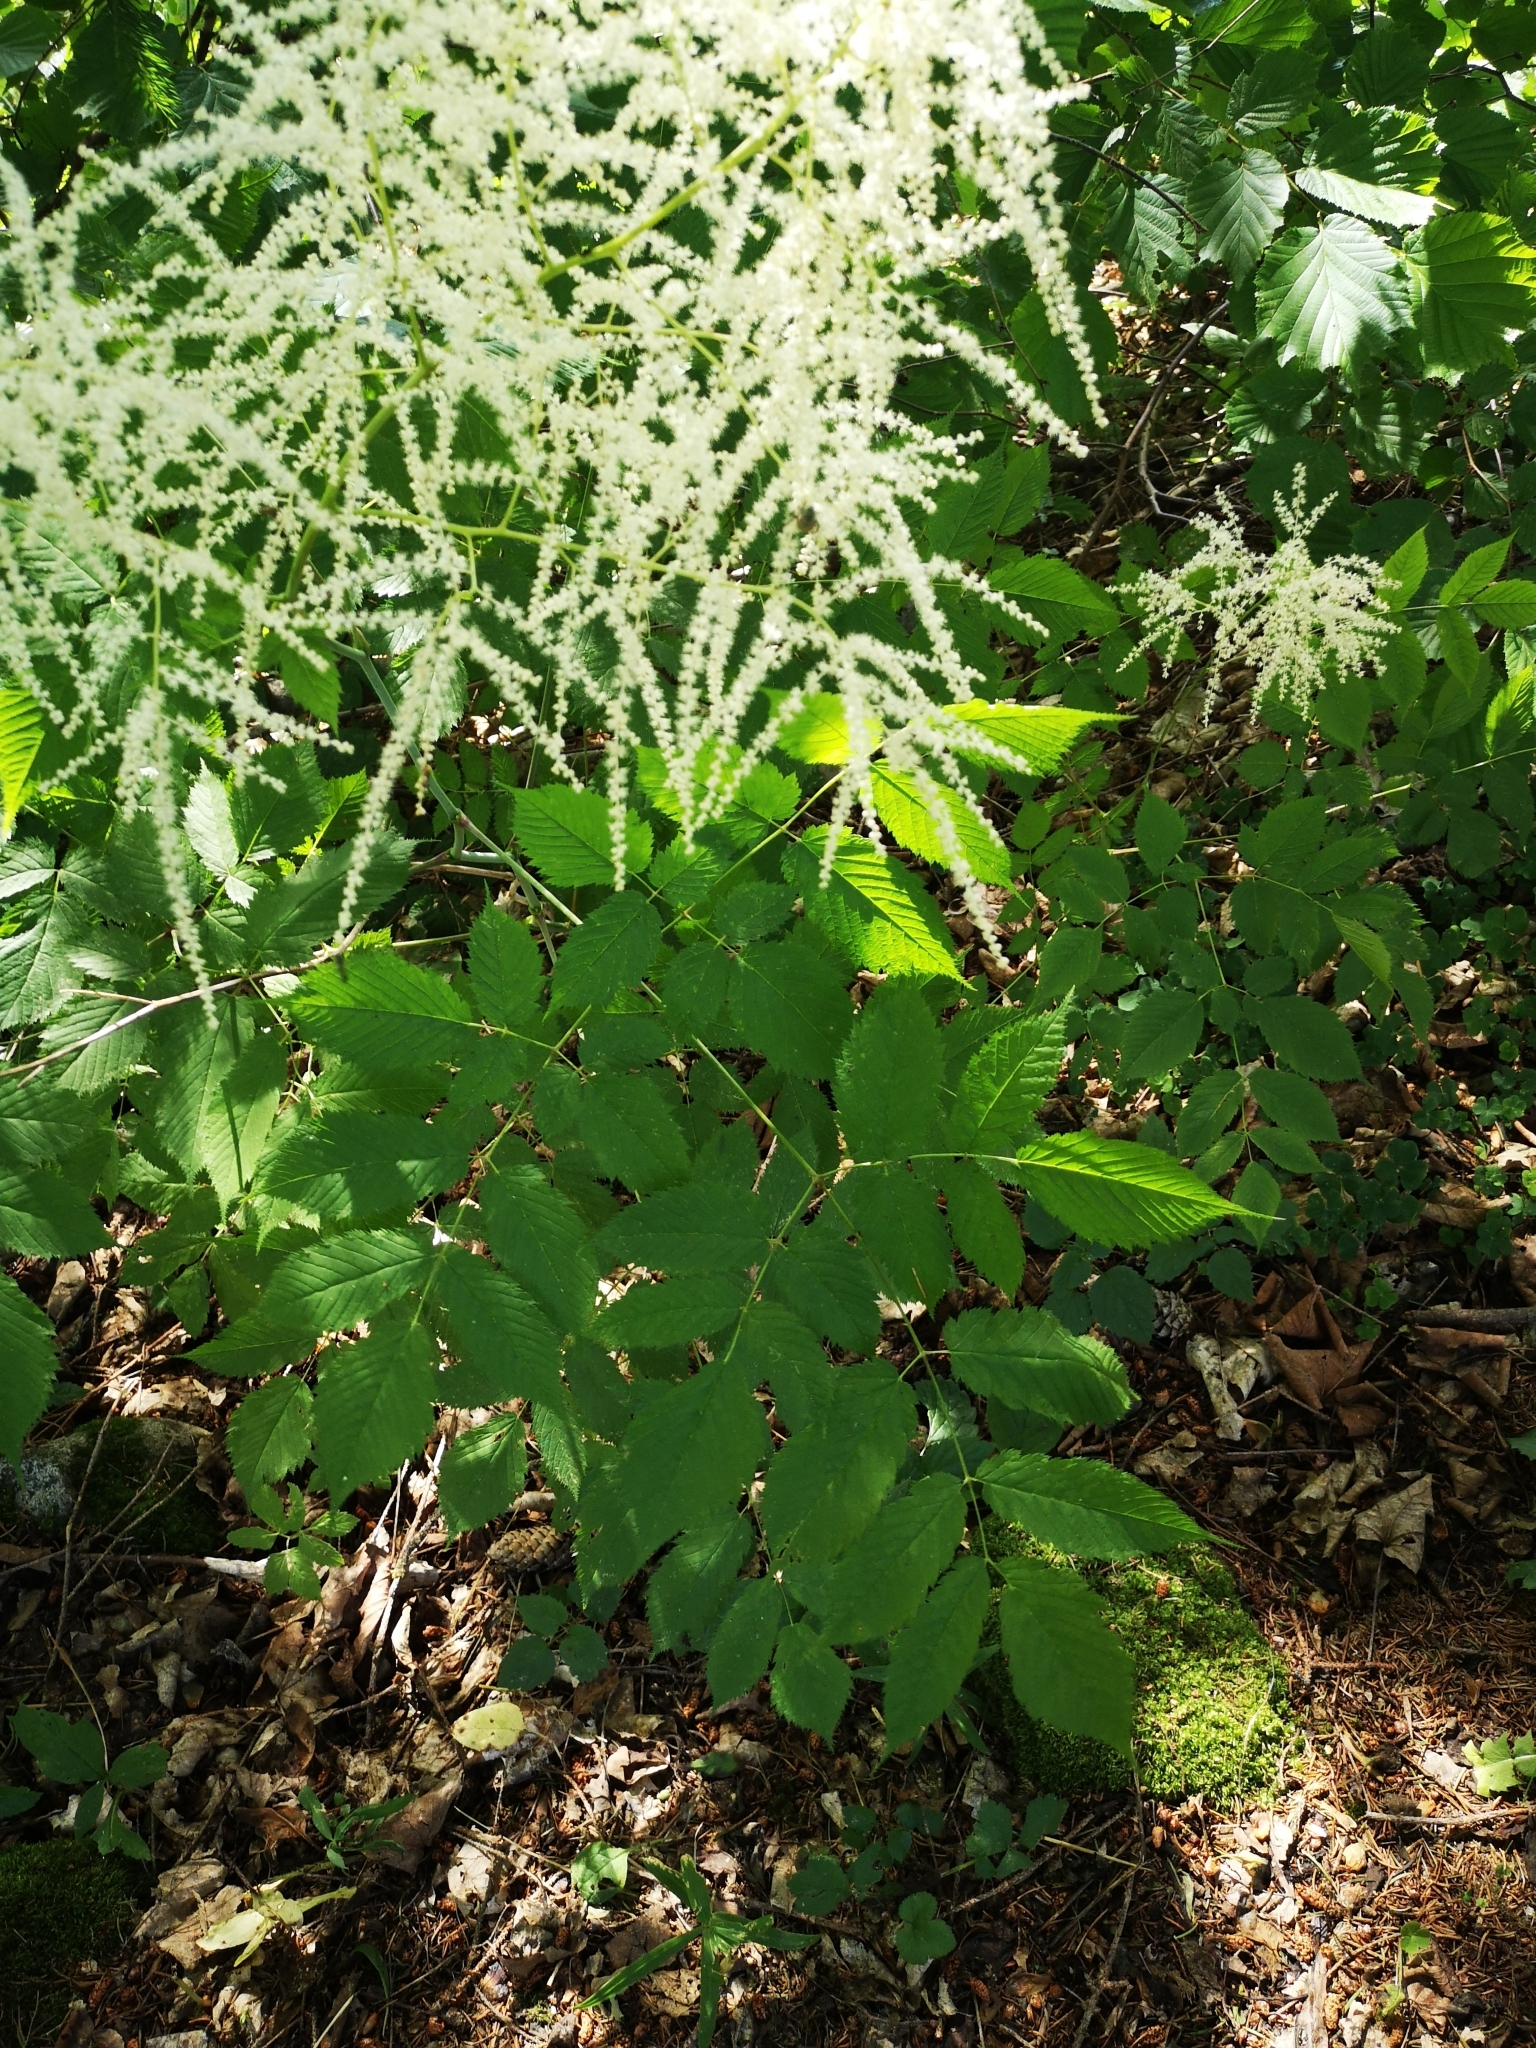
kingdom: Plantae
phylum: Tracheophyta
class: Magnoliopsida
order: Rosales
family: Rosaceae
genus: Aruncus
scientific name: Aruncus dioicus
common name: Buck's-beard
